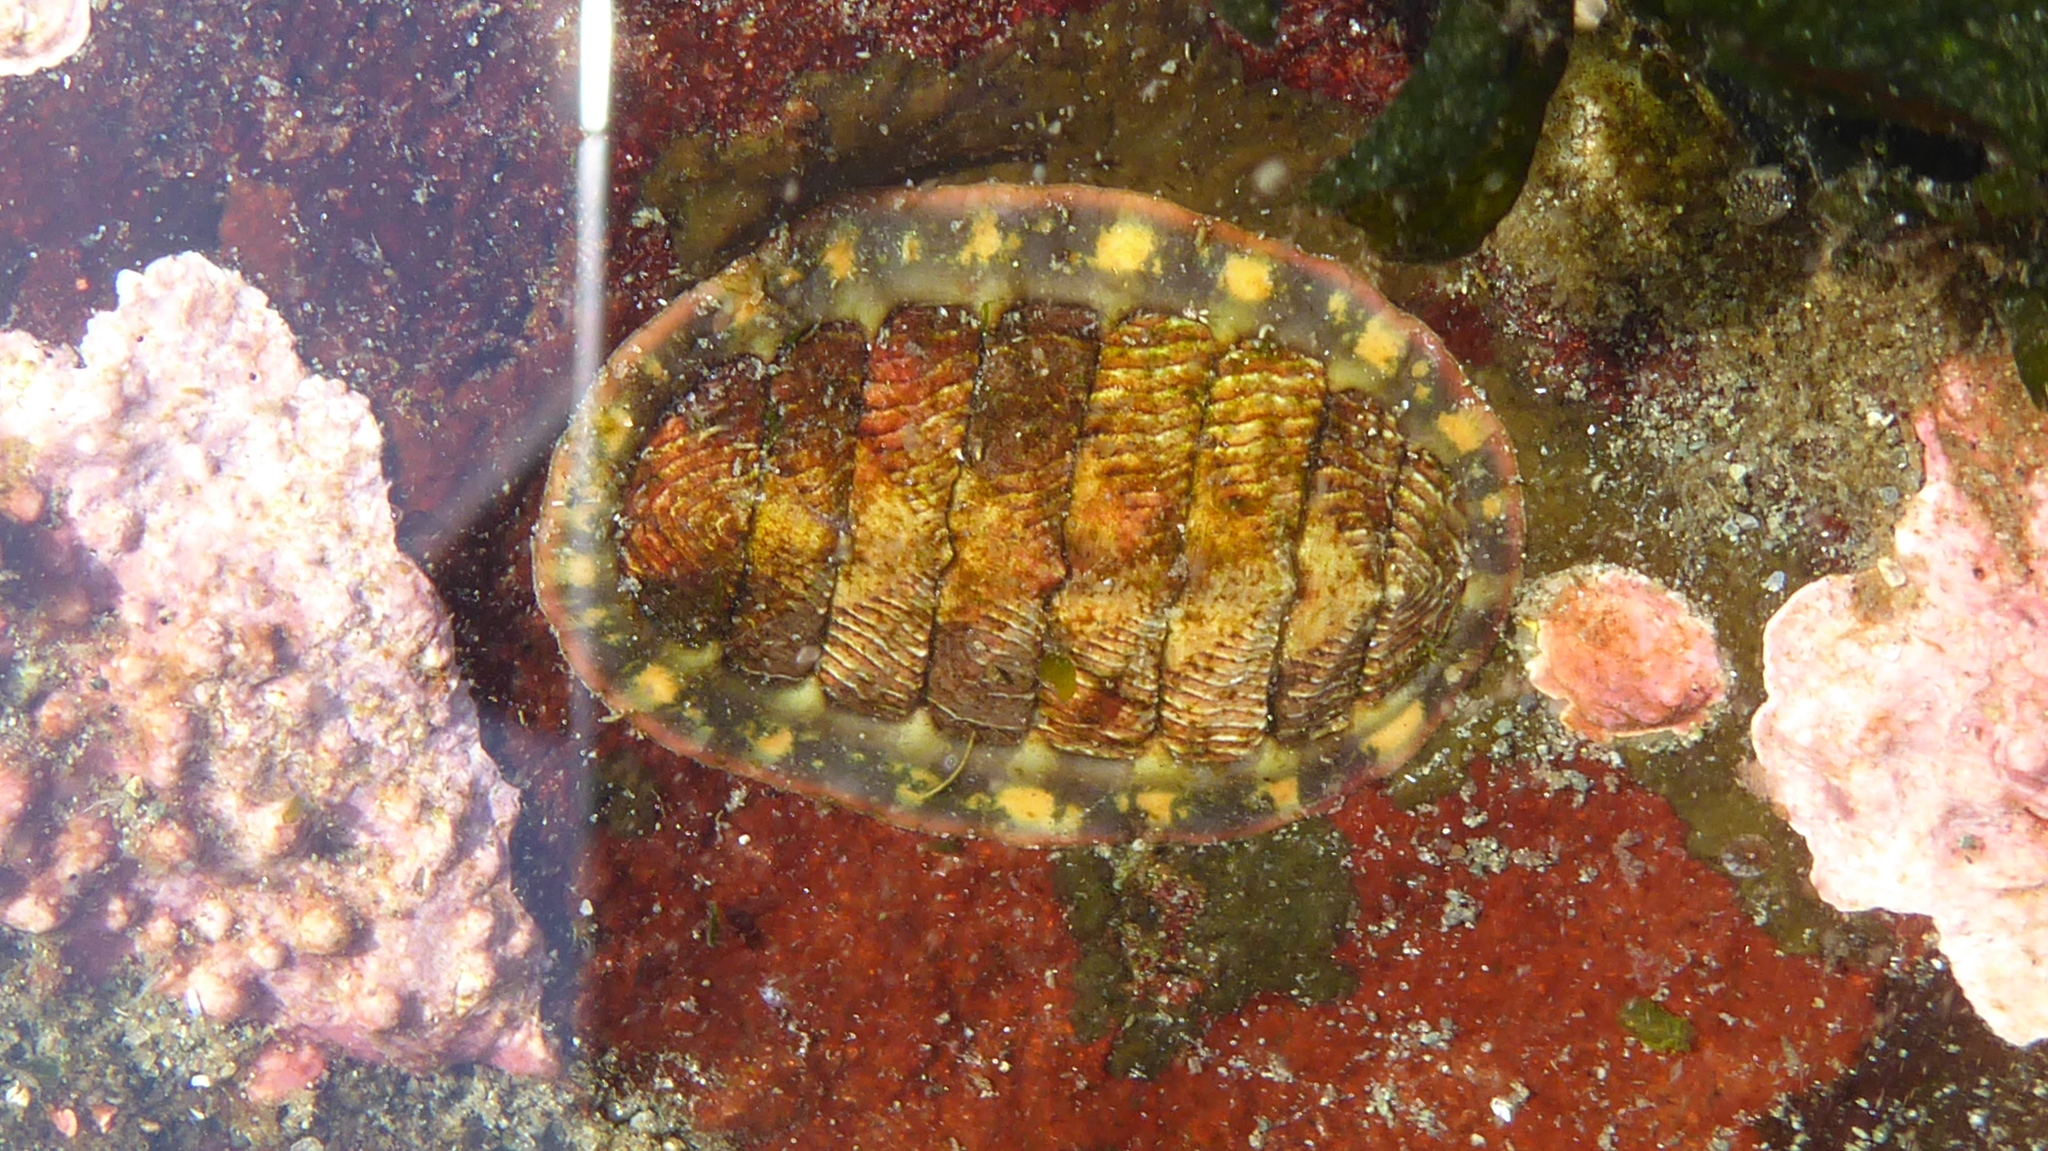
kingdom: Animalia
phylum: Mollusca
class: Polyplacophora
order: Chitonida
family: Tonicellidae
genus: Tonicella
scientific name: Tonicella lineata
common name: Lined chiton
